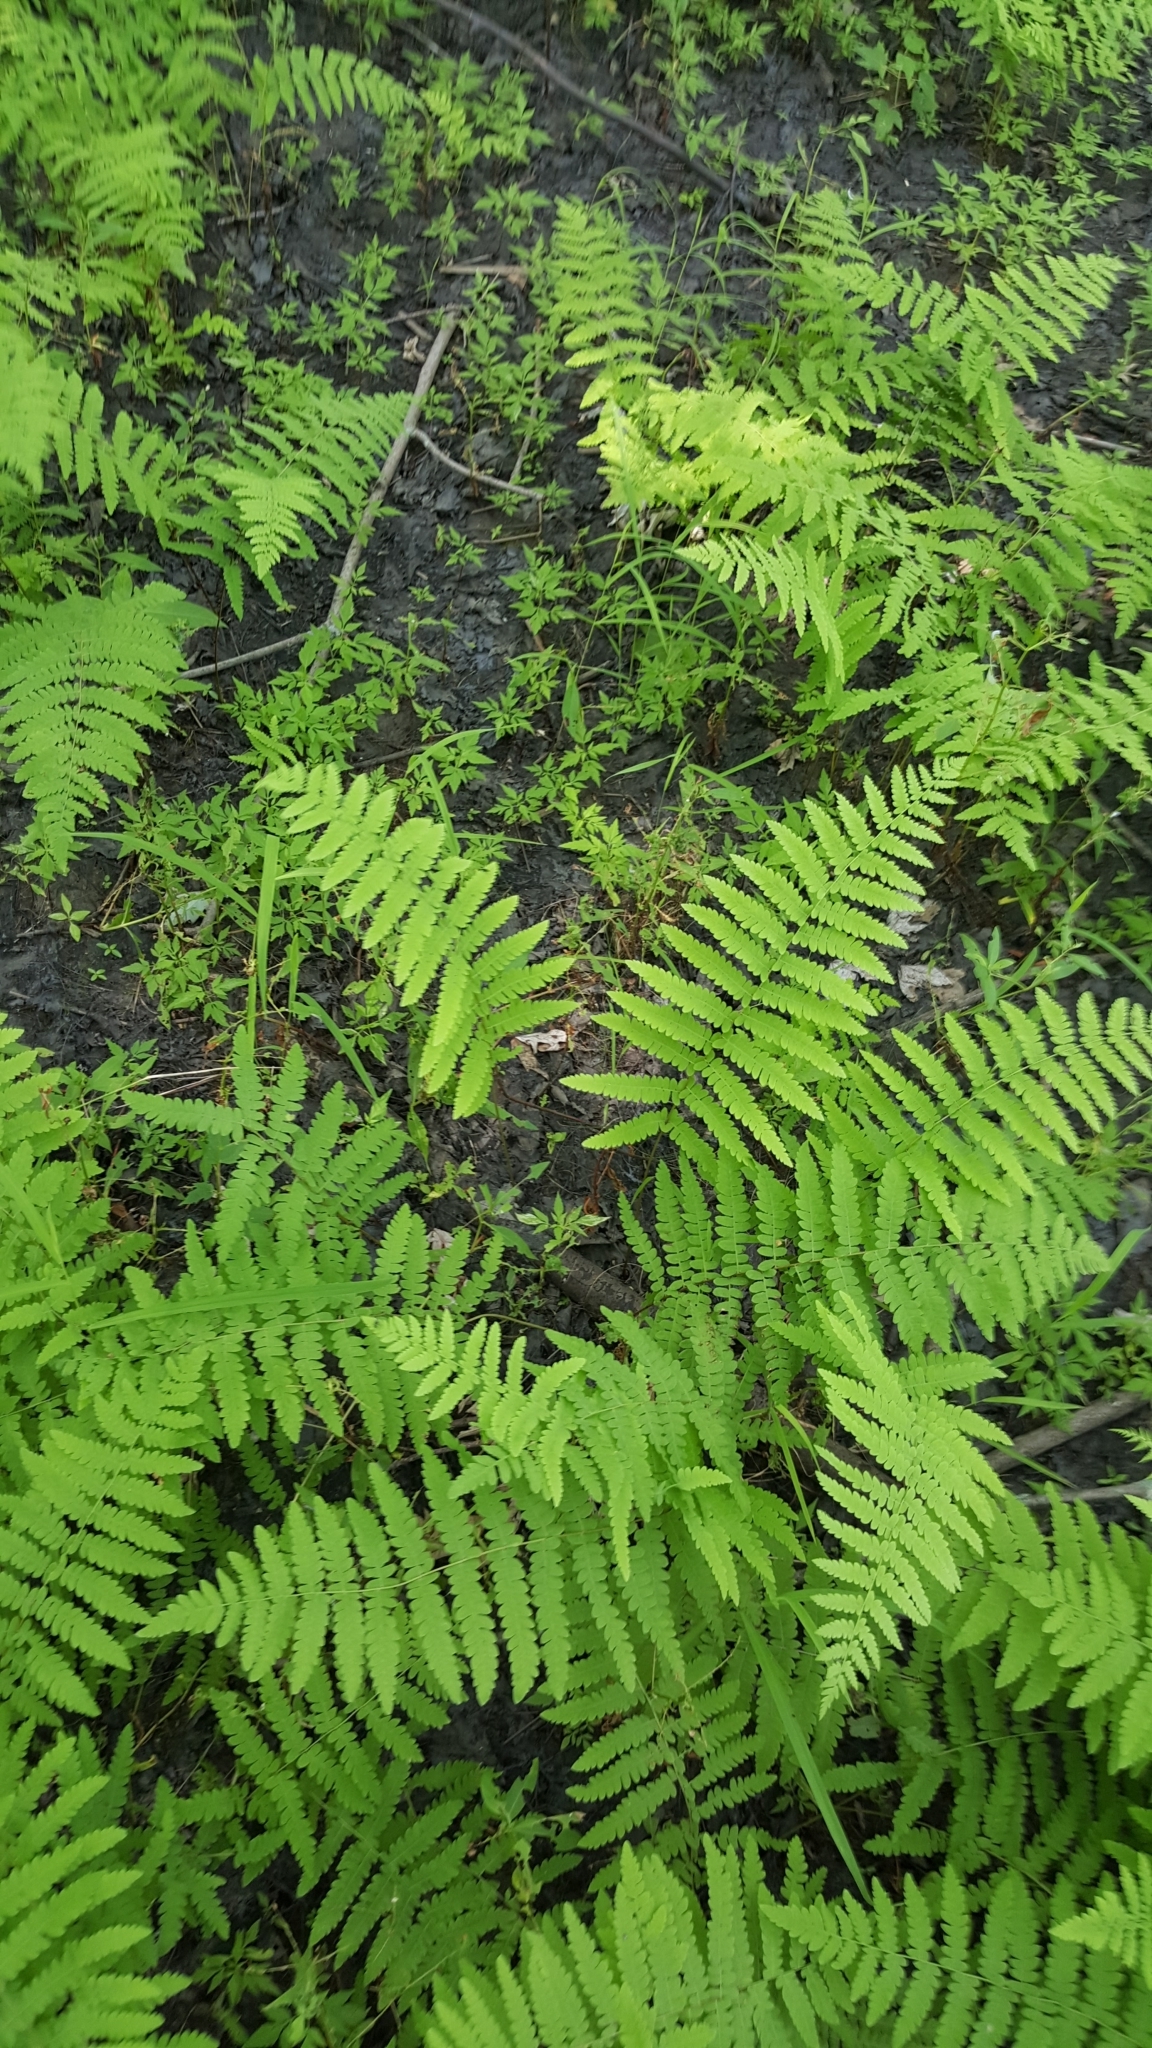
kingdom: Plantae
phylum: Tracheophyta
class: Polypodiopsida
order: Polypodiales
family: Thelypteridaceae
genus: Thelypteris
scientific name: Thelypteris palustris
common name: Marsh fern
